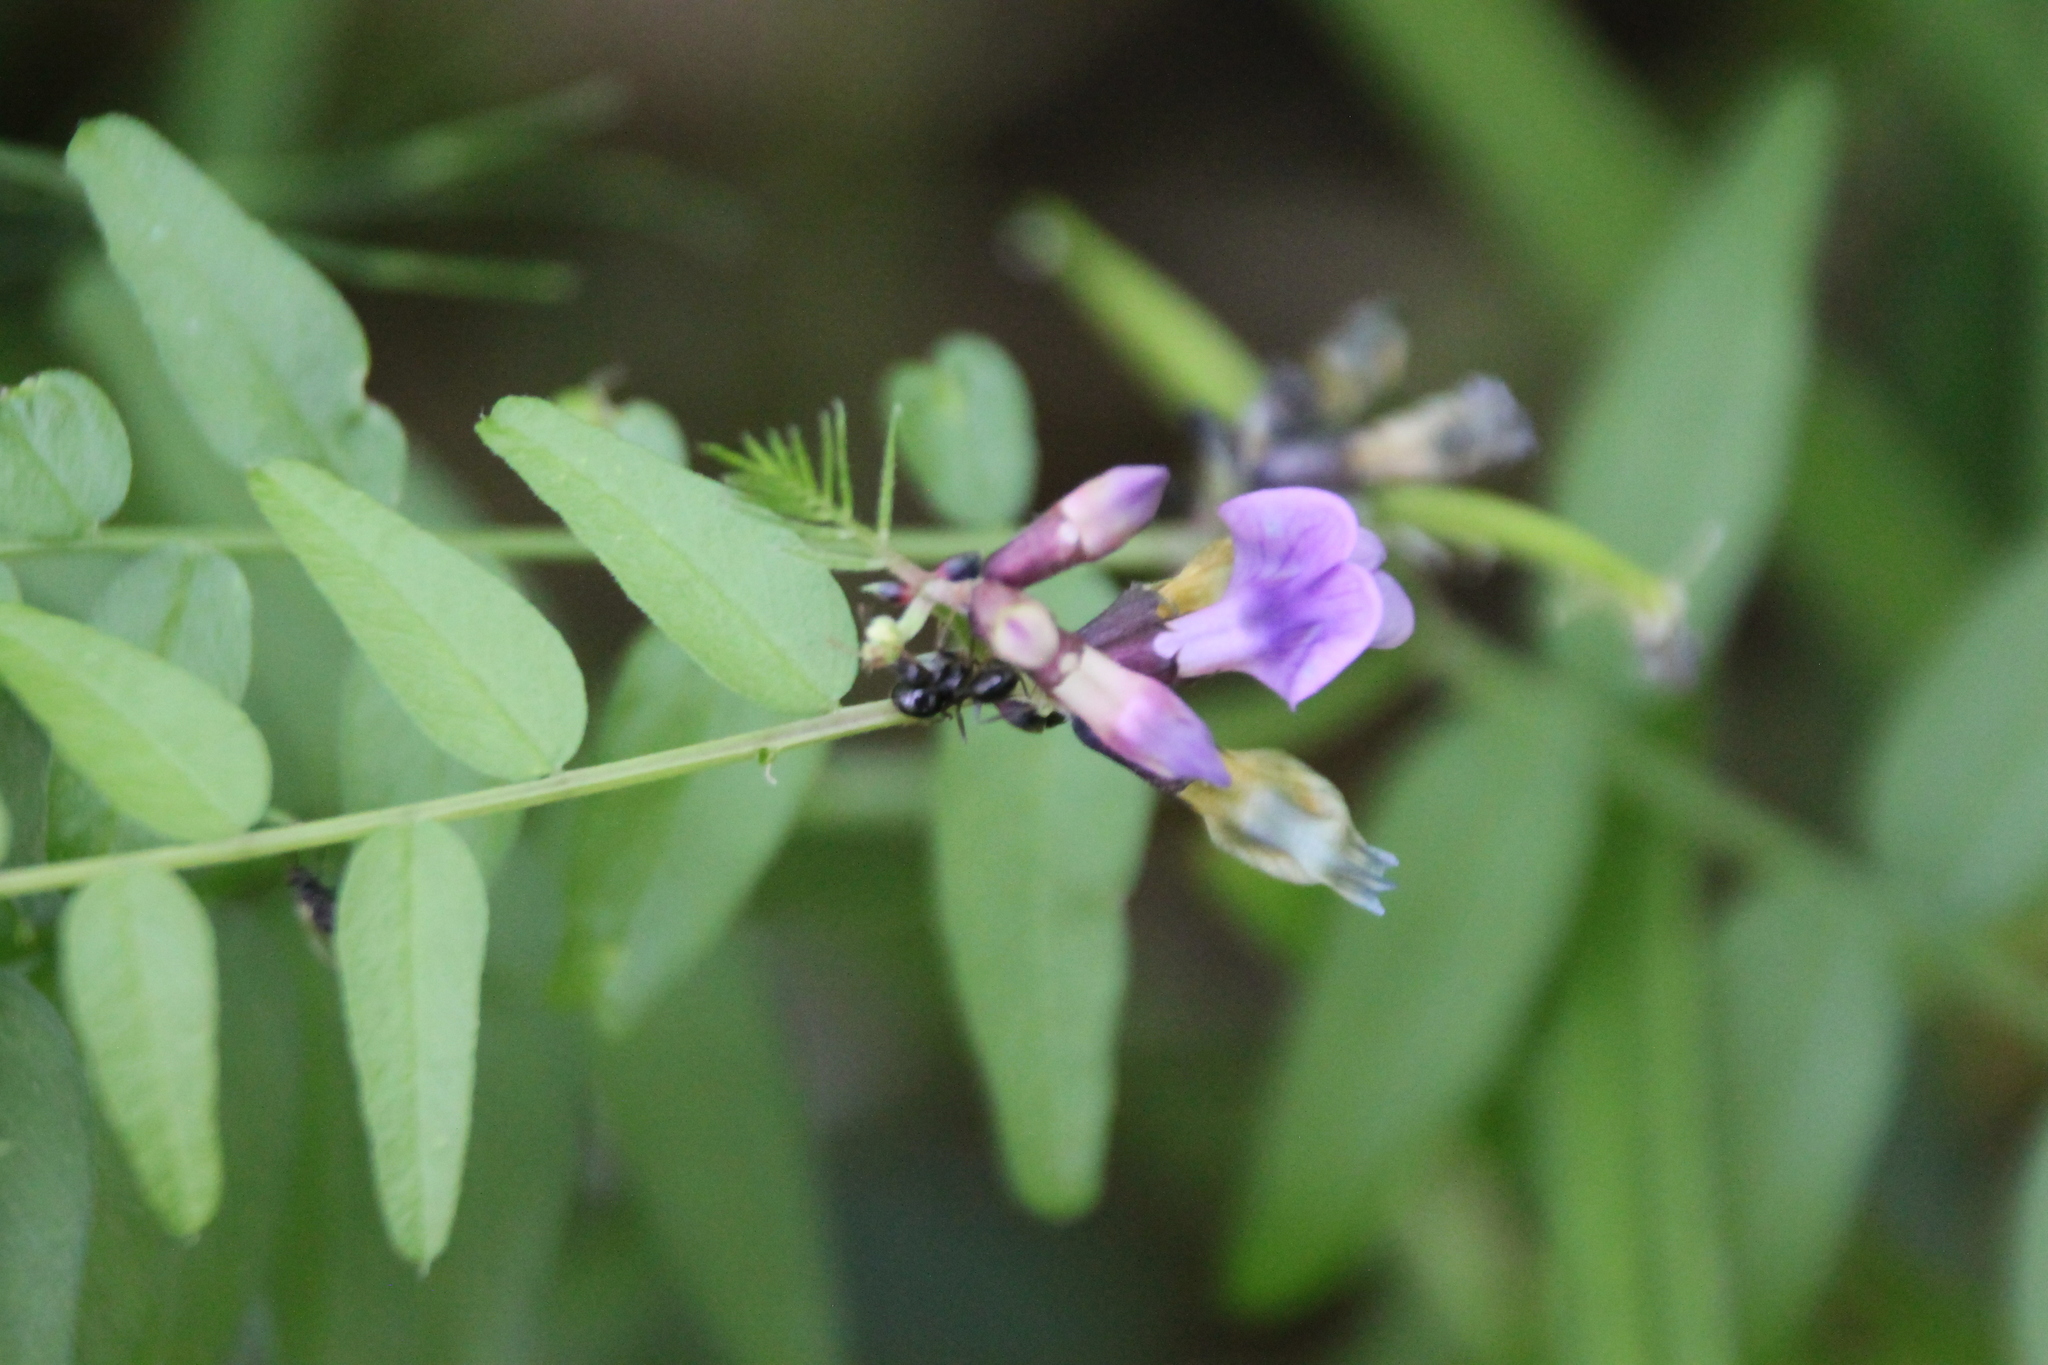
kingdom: Plantae
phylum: Tracheophyta
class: Magnoliopsida
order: Fabales
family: Fabaceae
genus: Vicia
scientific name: Vicia sepium
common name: Bush vetch
